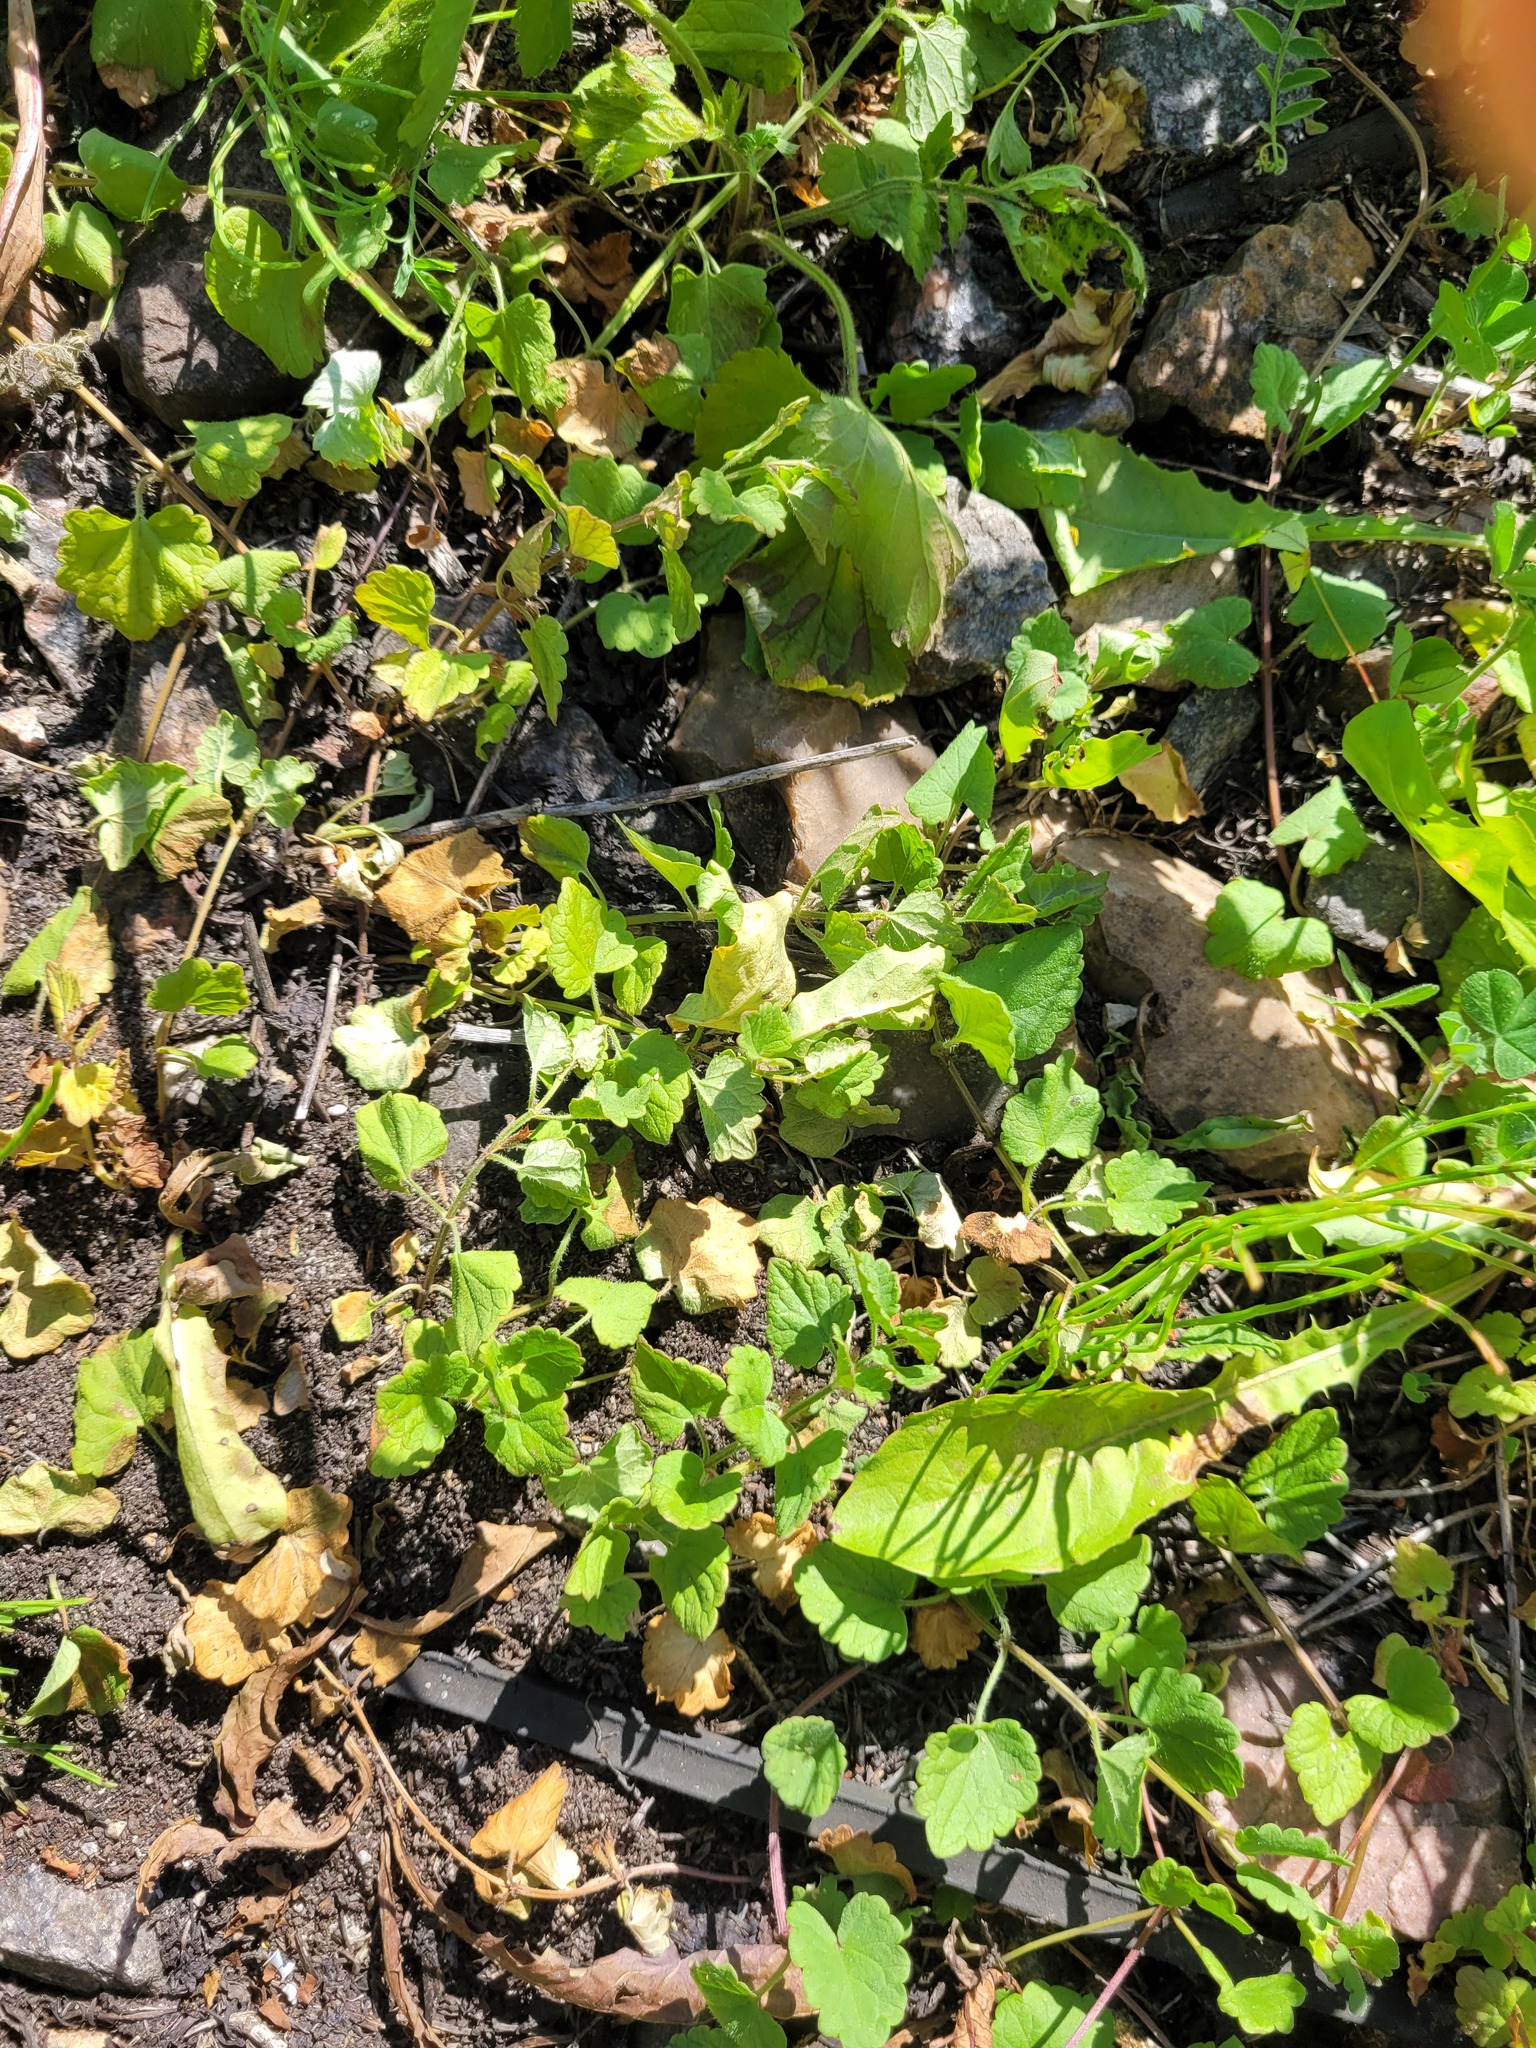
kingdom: Plantae
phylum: Tracheophyta
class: Magnoliopsida
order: Lamiales
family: Lamiaceae
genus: Glechoma
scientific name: Glechoma hederacea
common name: Ground ivy
